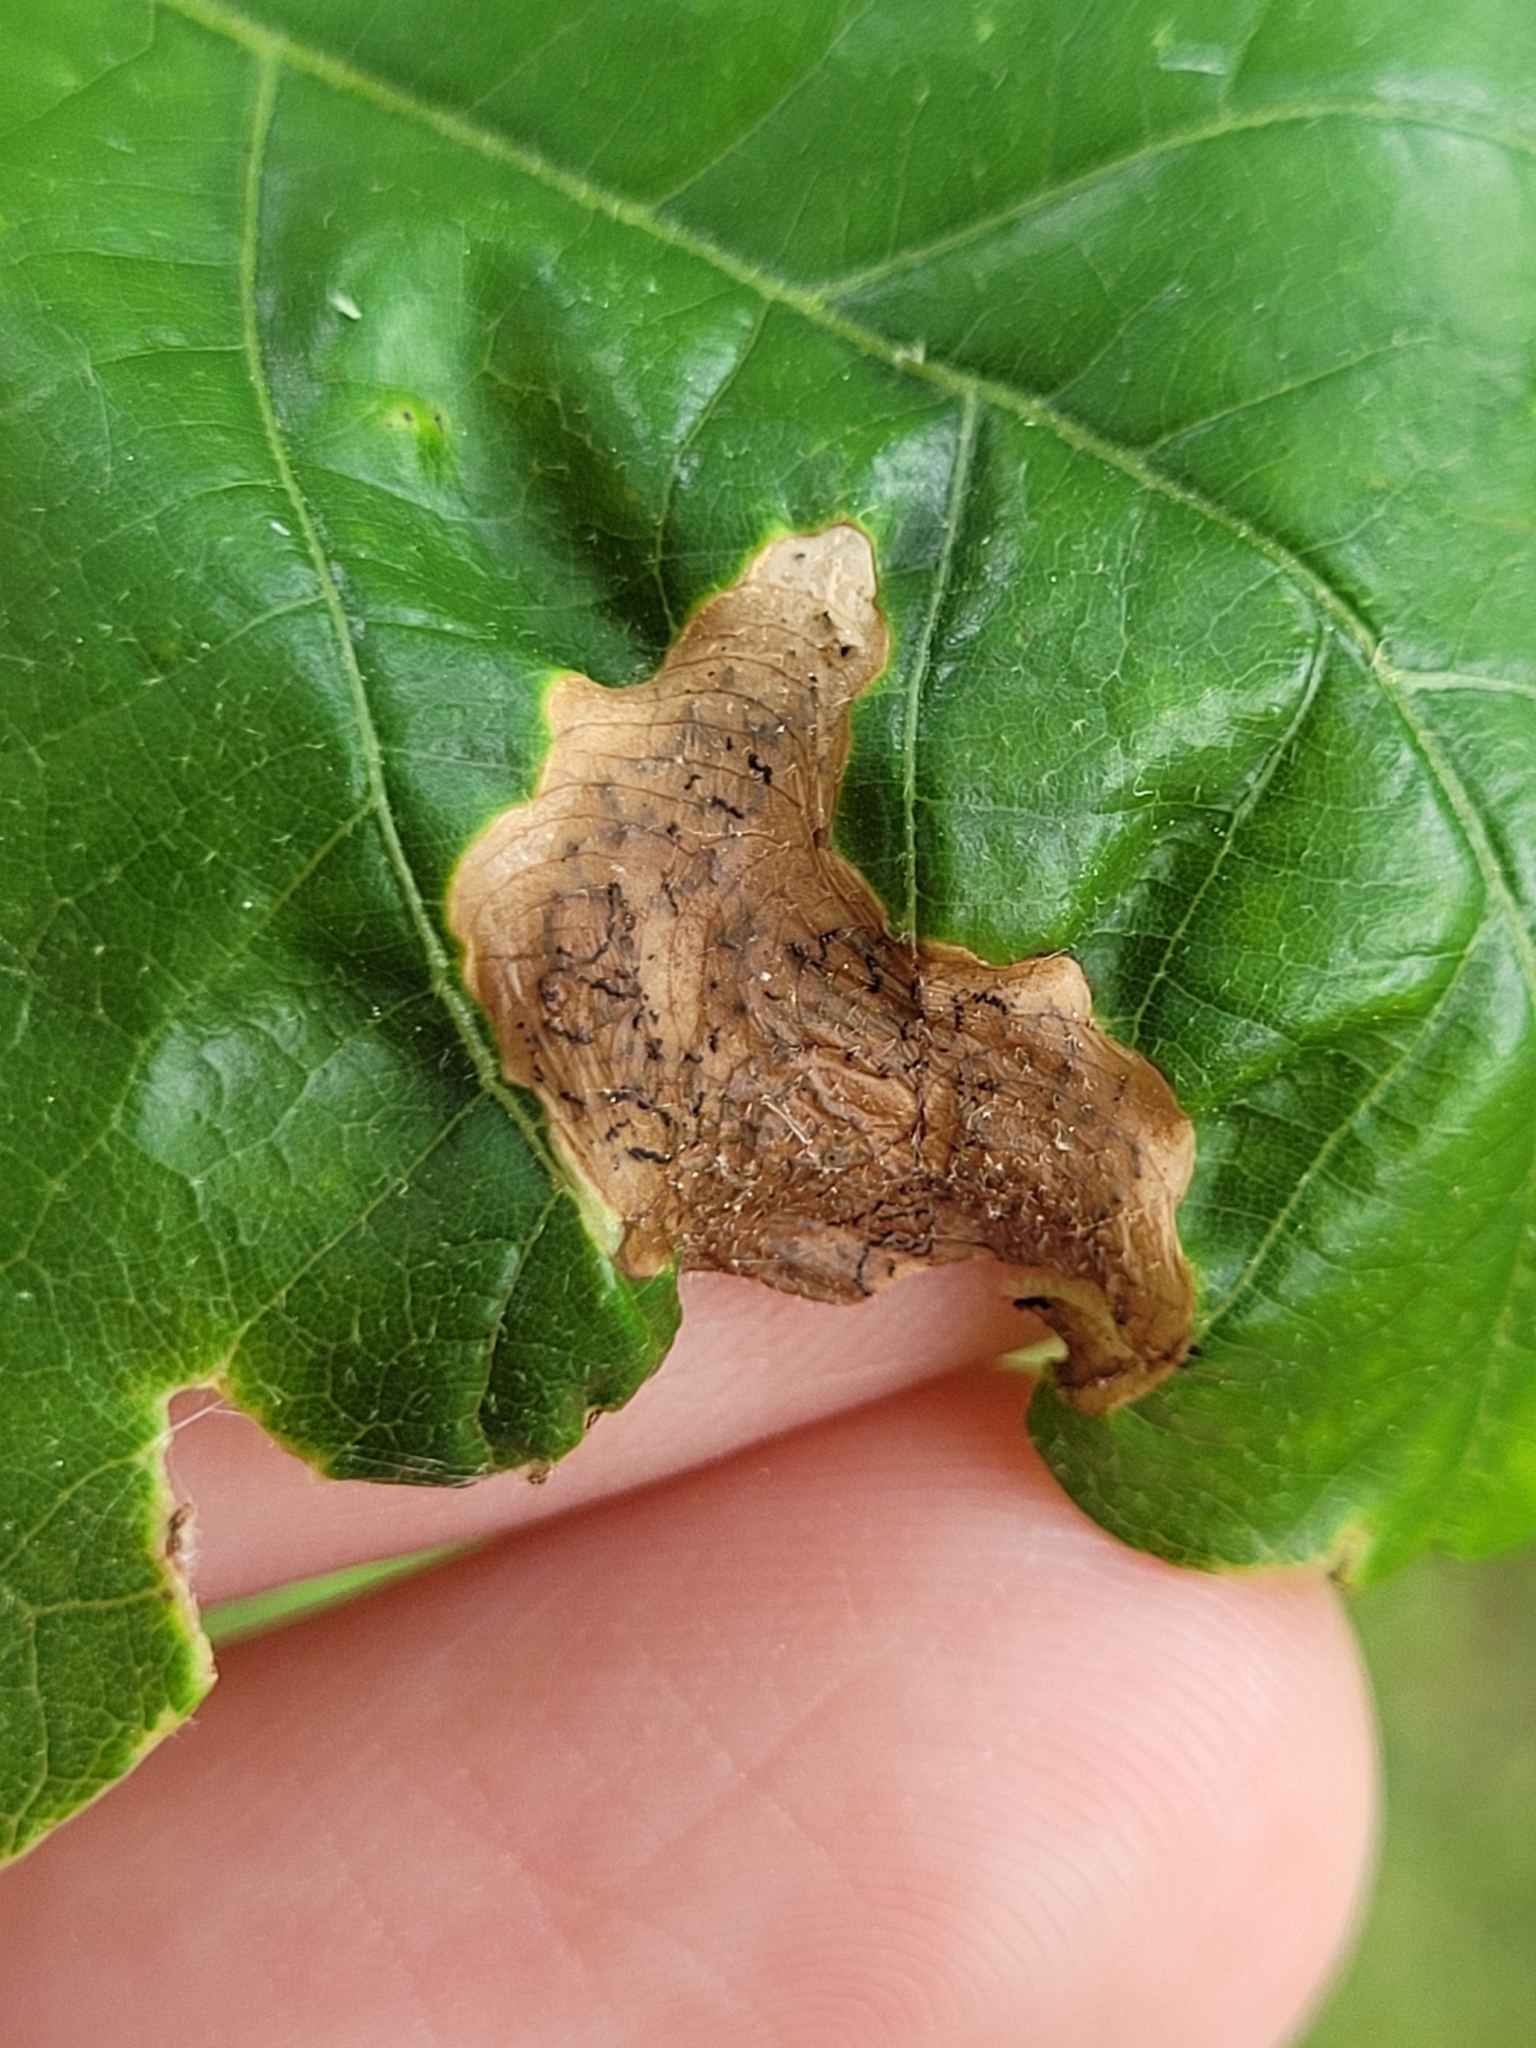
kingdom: Animalia
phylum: Arthropoda
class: Insecta
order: Diptera
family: Agromyzidae
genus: Japanagromyza
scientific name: Japanagromyza viridula
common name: Oak shothole leafminer
